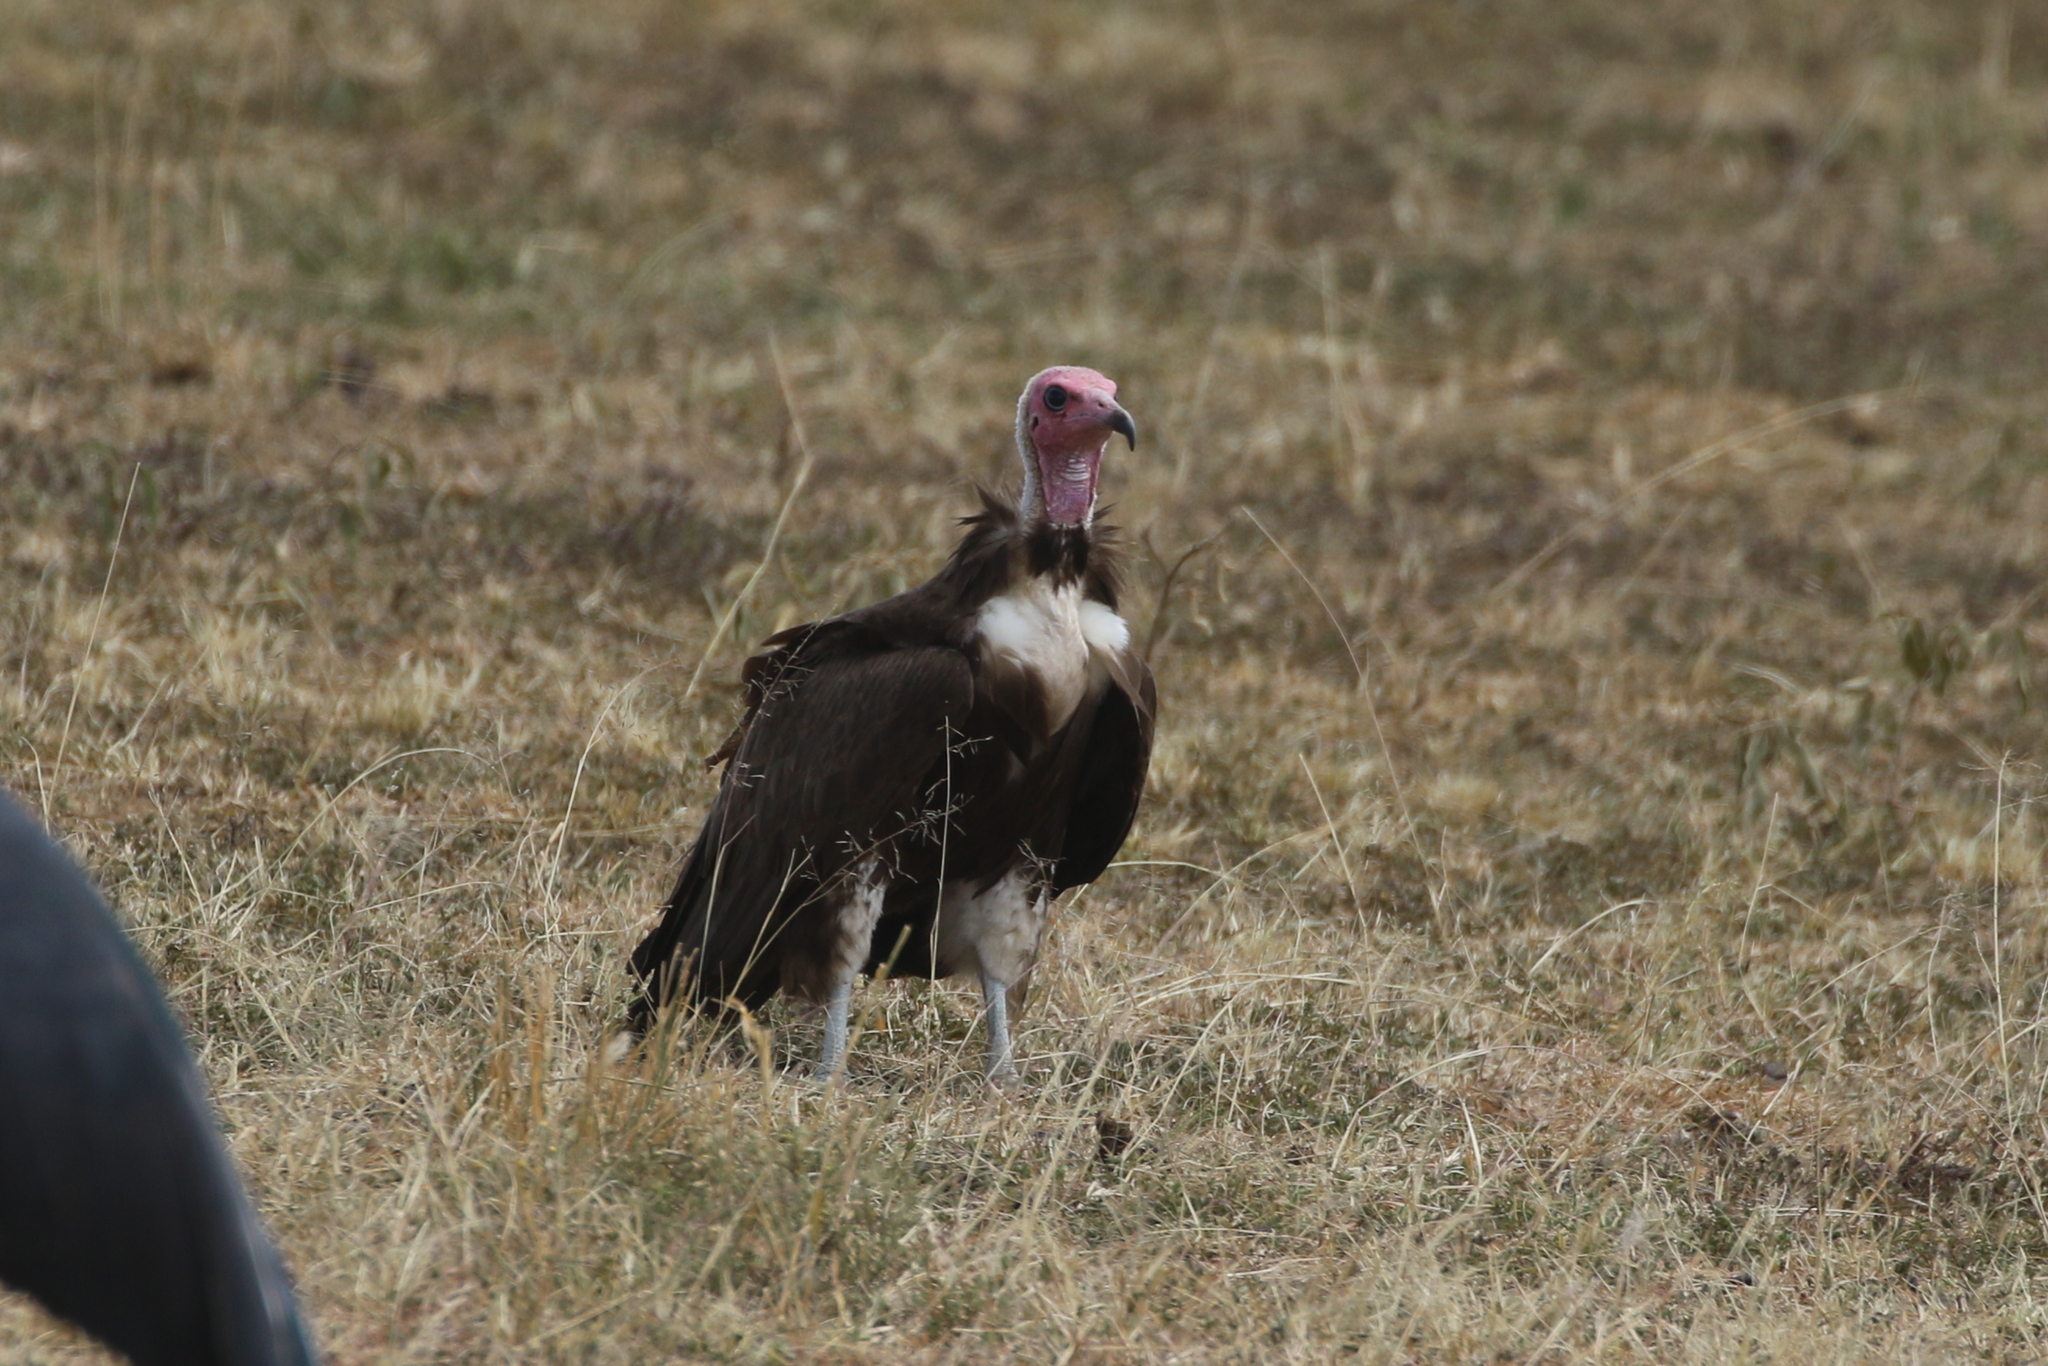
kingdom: Animalia
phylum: Chordata
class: Aves
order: Accipitriformes
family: Accipitridae
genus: Necrosyrtes
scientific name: Necrosyrtes monachus
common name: Hooded vulture
